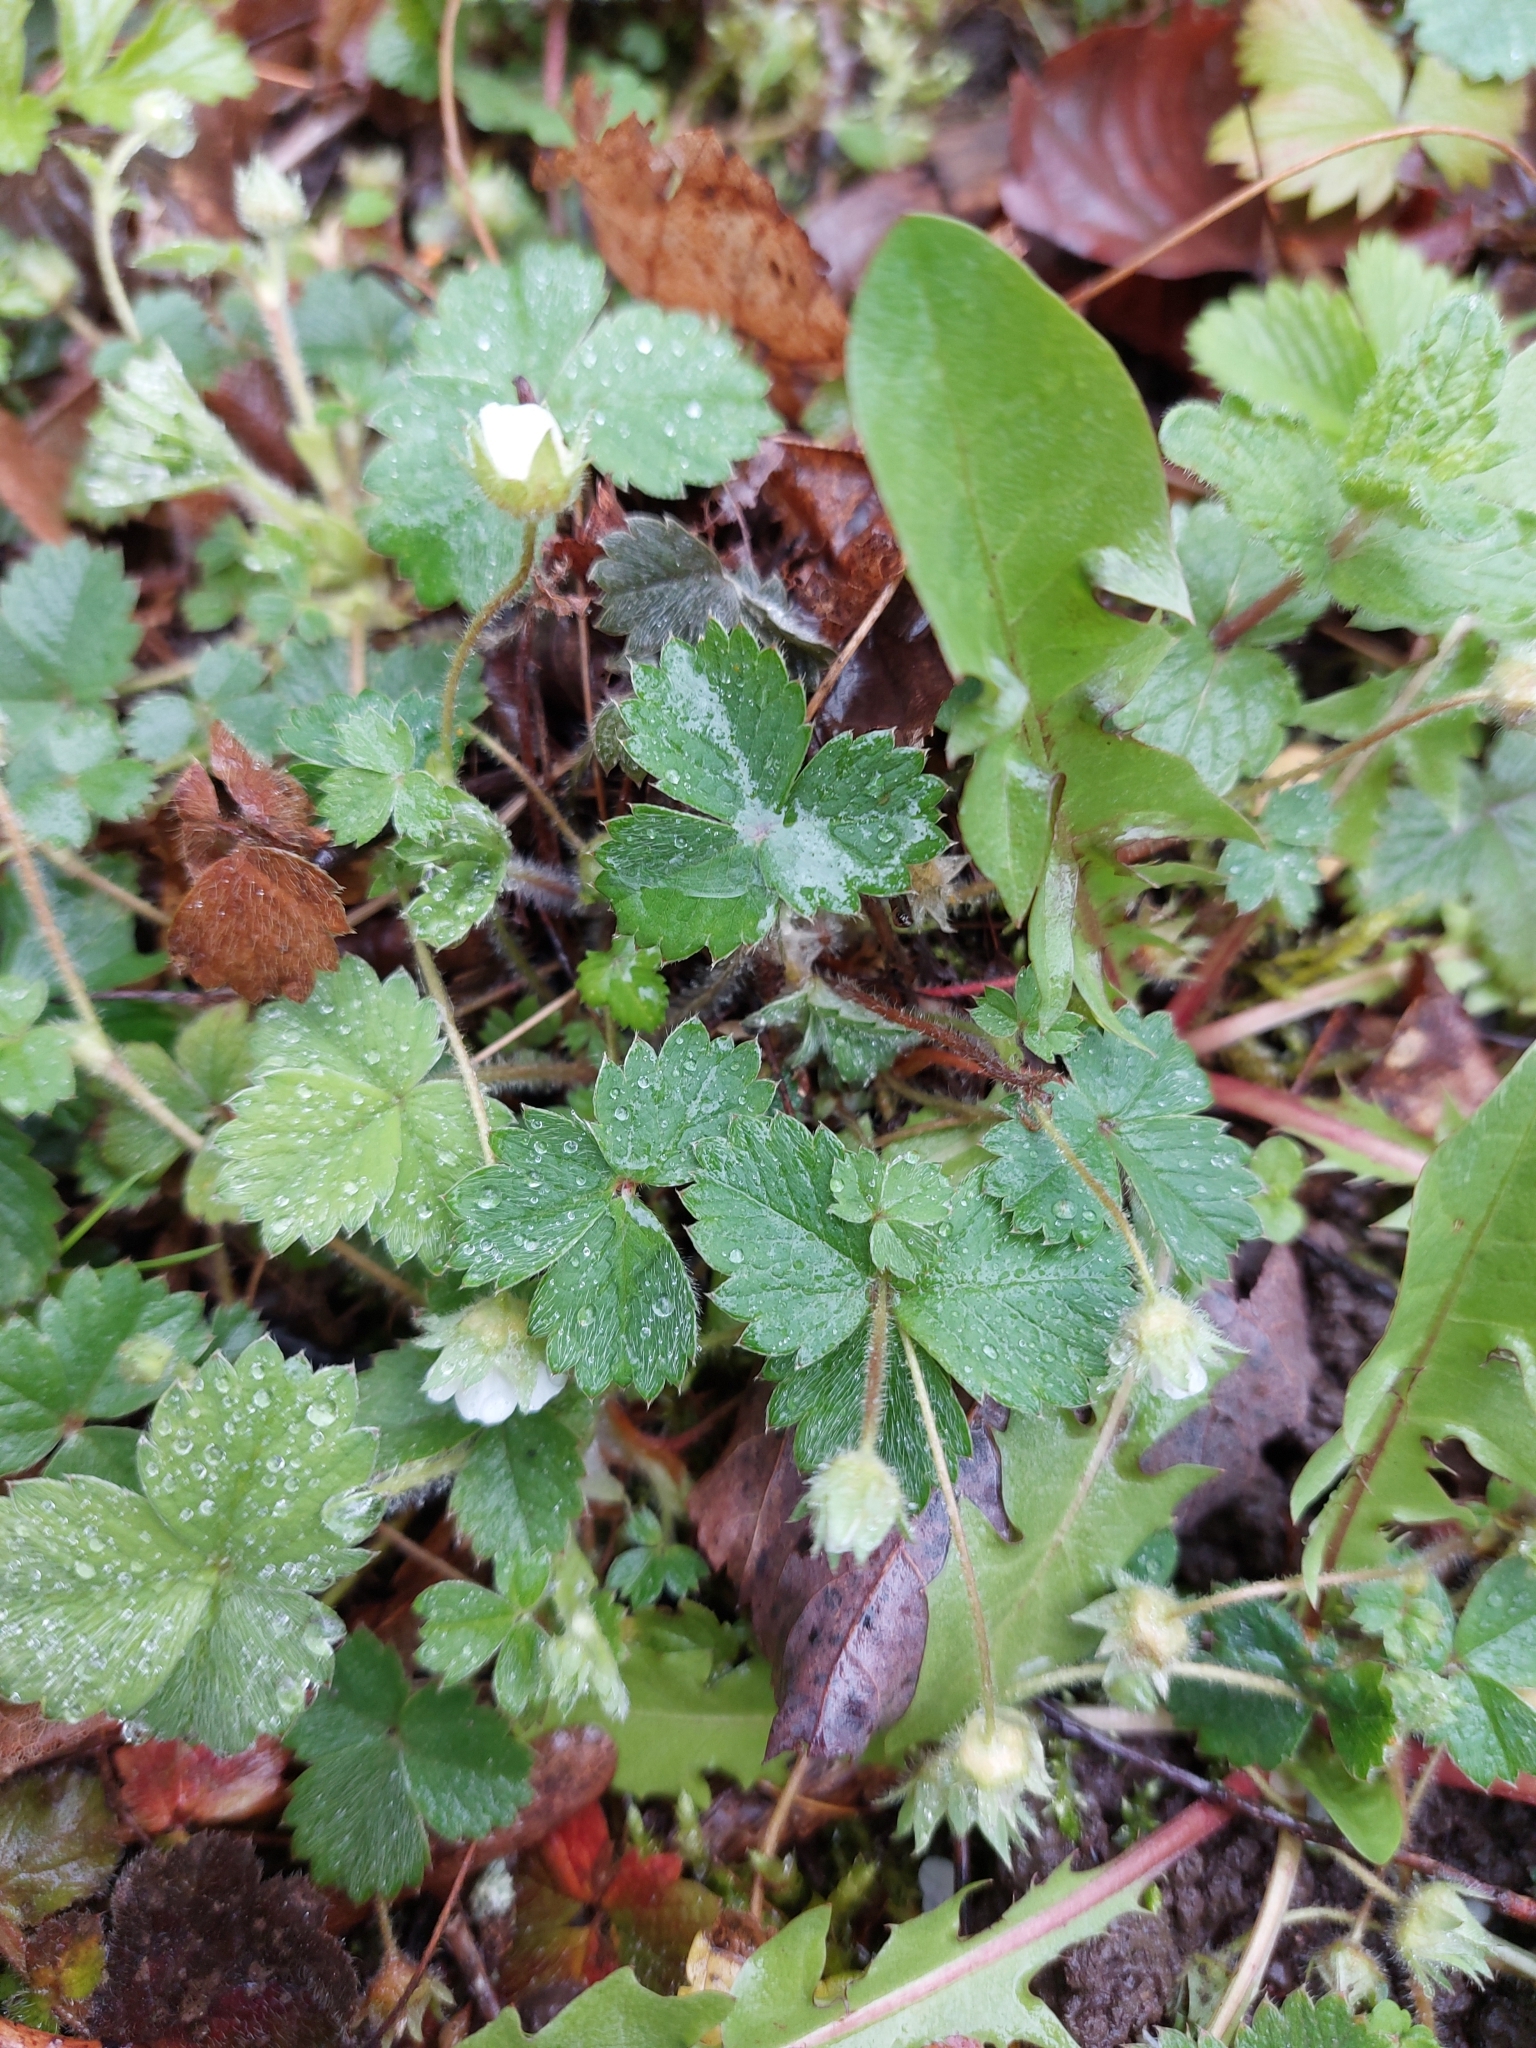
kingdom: Plantae
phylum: Tracheophyta
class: Magnoliopsida
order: Rosales
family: Rosaceae
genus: Potentilla
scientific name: Potentilla sterilis
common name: Barren strawberry
